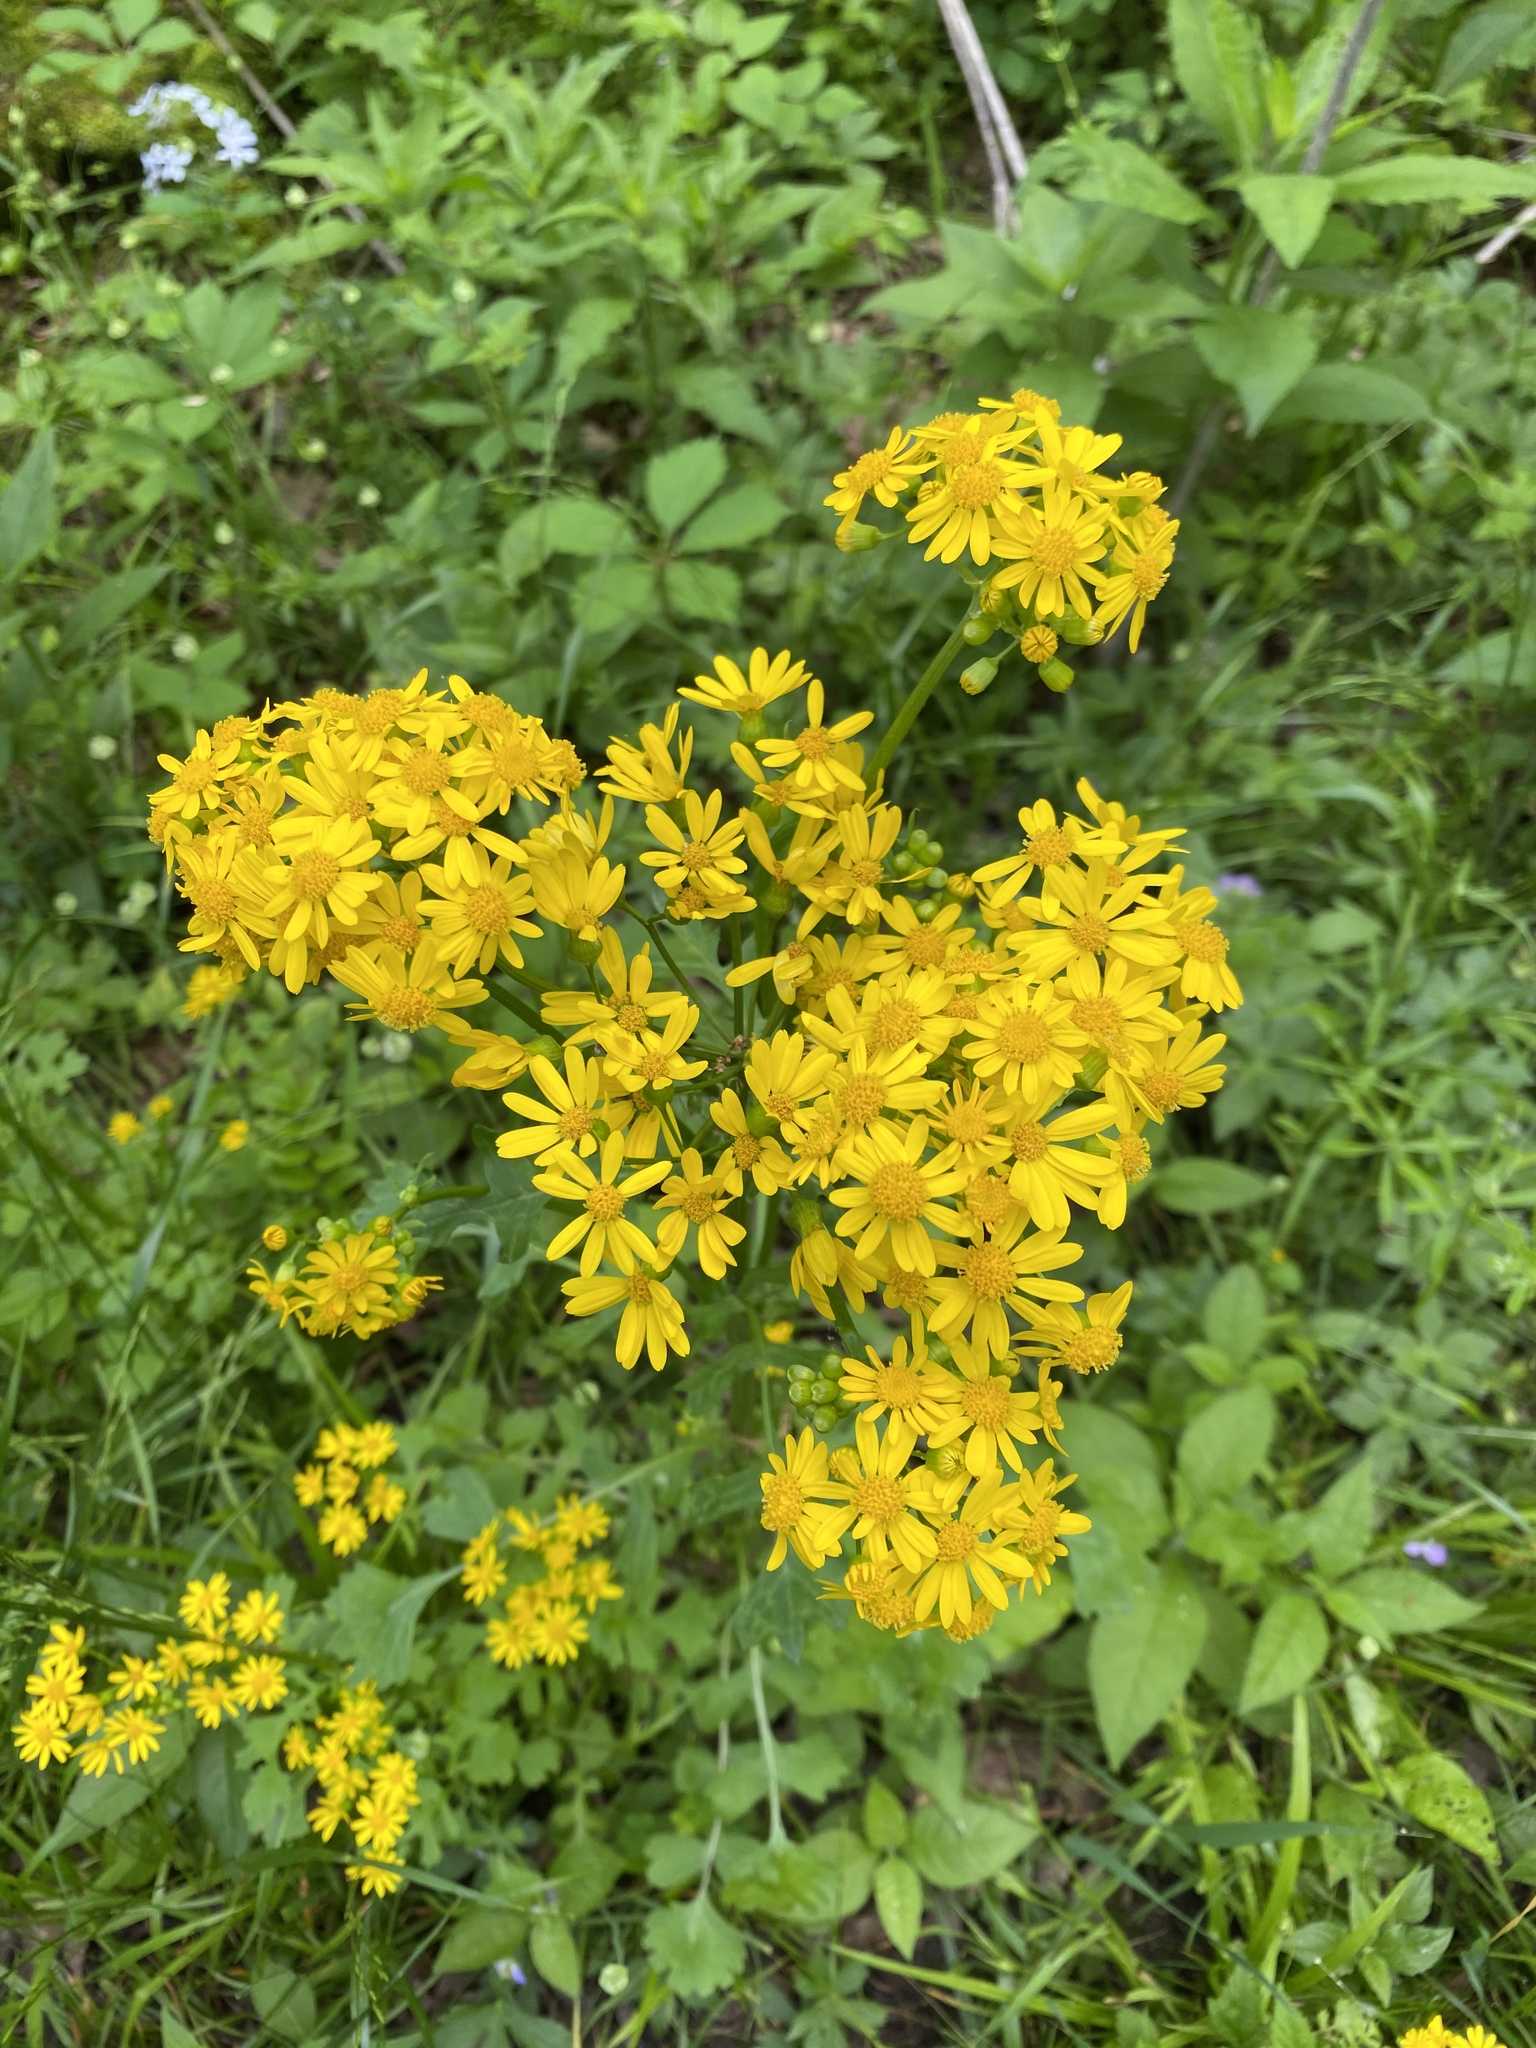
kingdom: Plantae
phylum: Tracheophyta
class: Magnoliopsida
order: Asterales
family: Asteraceae
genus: Packera
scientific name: Packera glabella
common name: Butterweed
